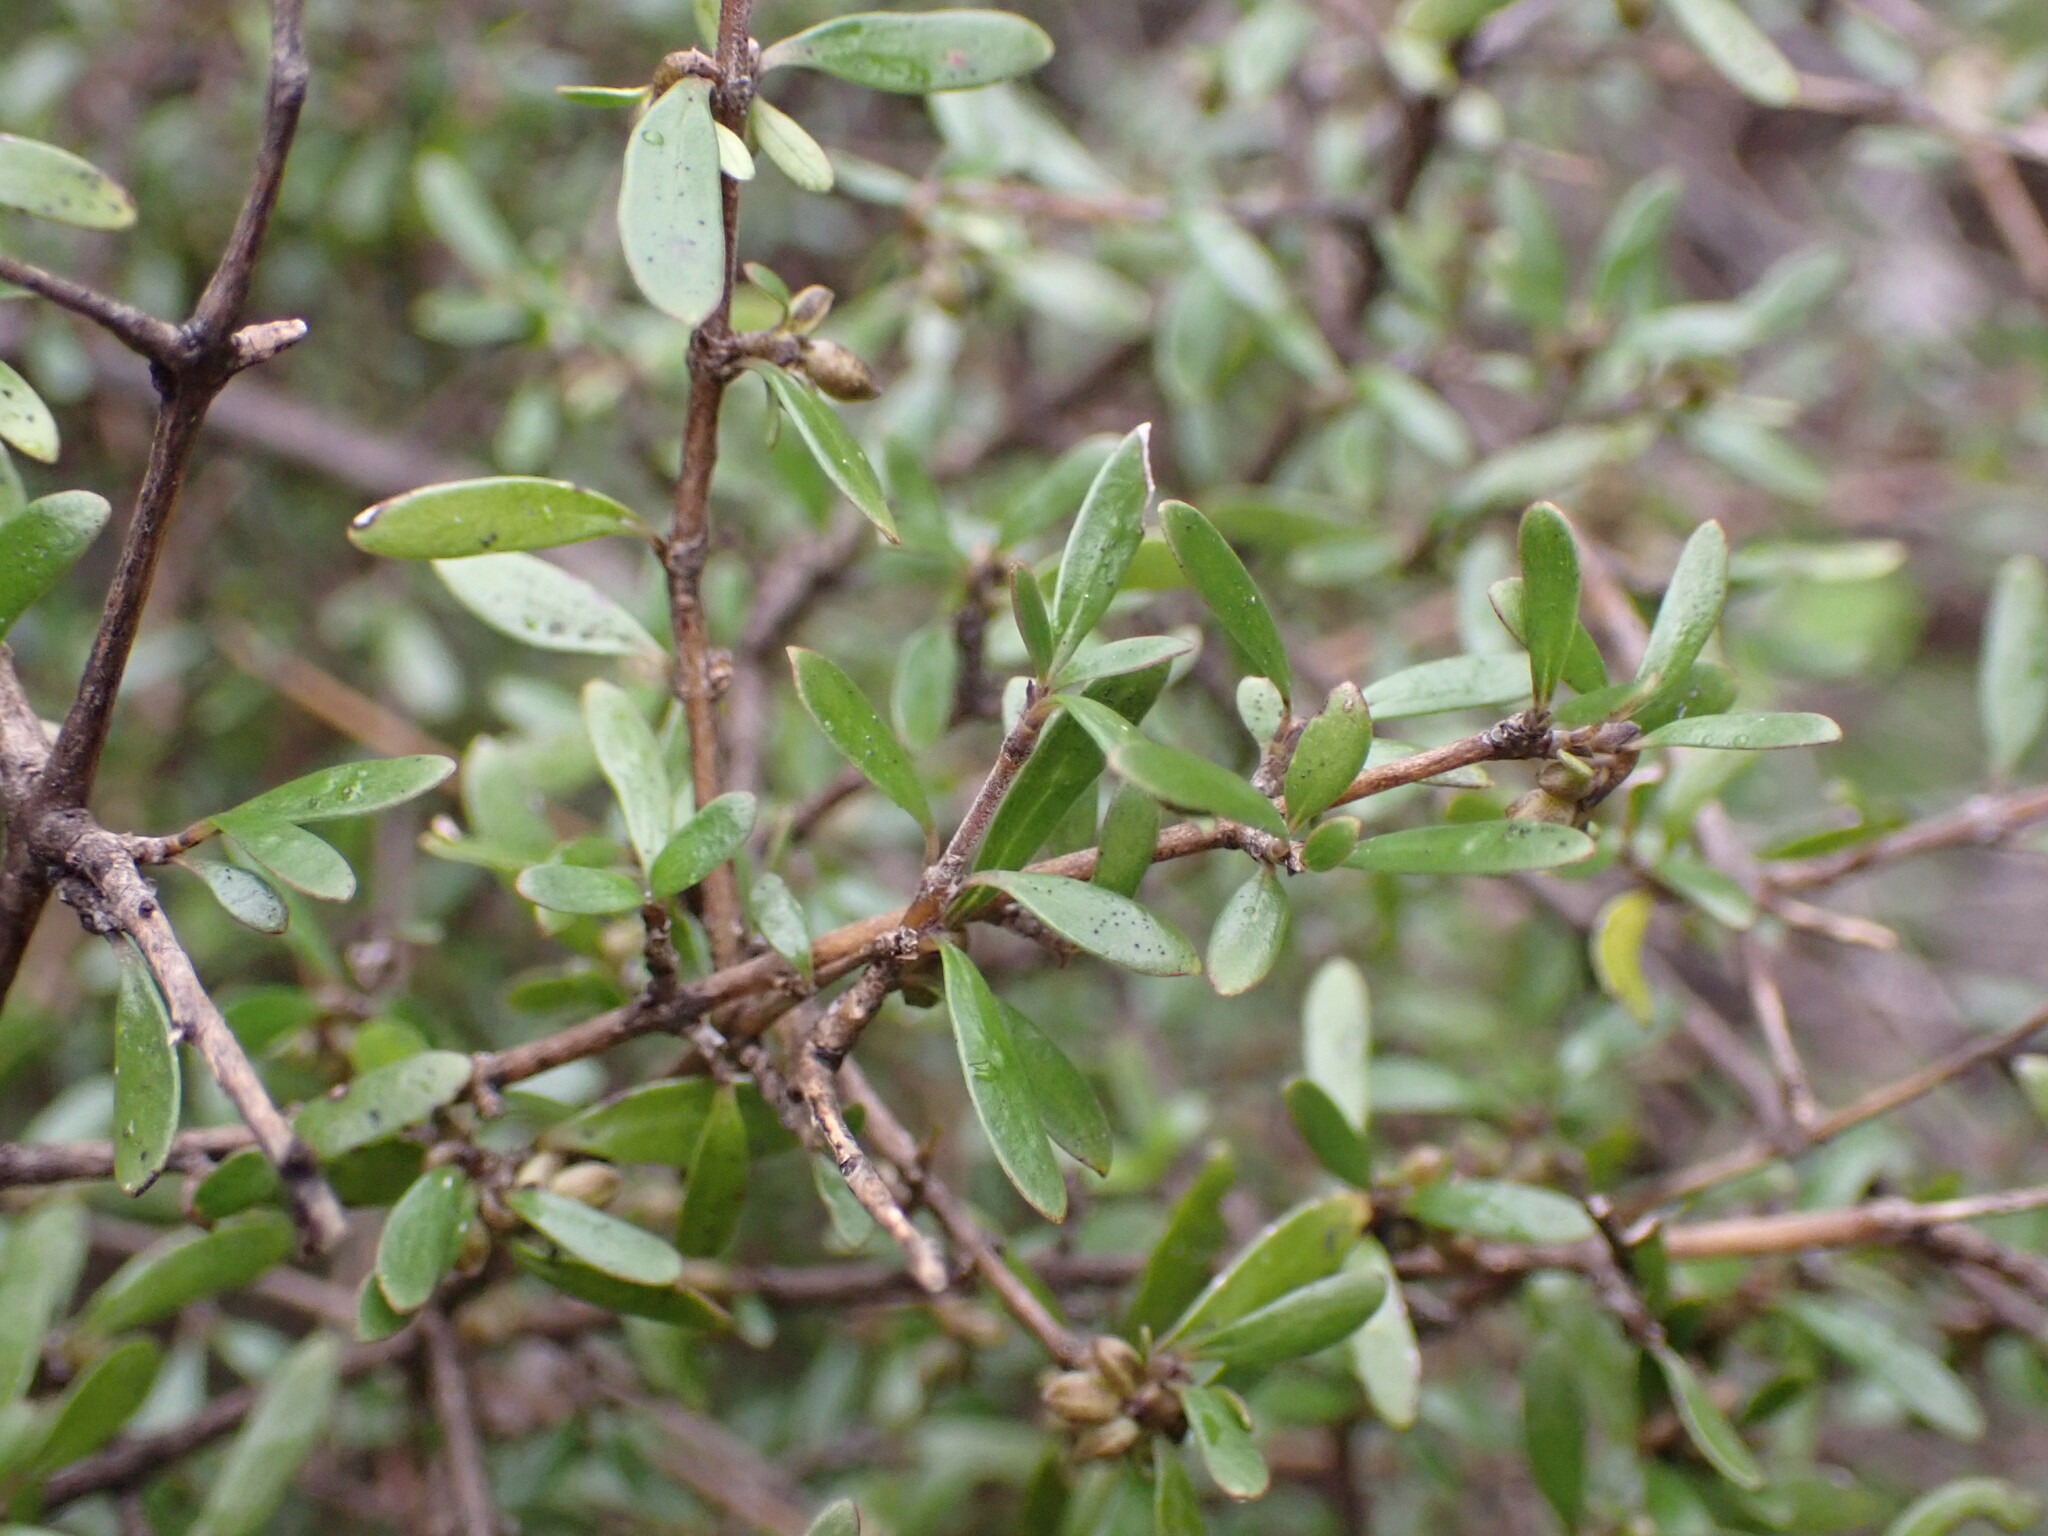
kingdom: Plantae
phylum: Tracheophyta
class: Magnoliopsida
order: Gentianales
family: Rubiaceae
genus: Coprosma
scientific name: Coprosma propinqua
